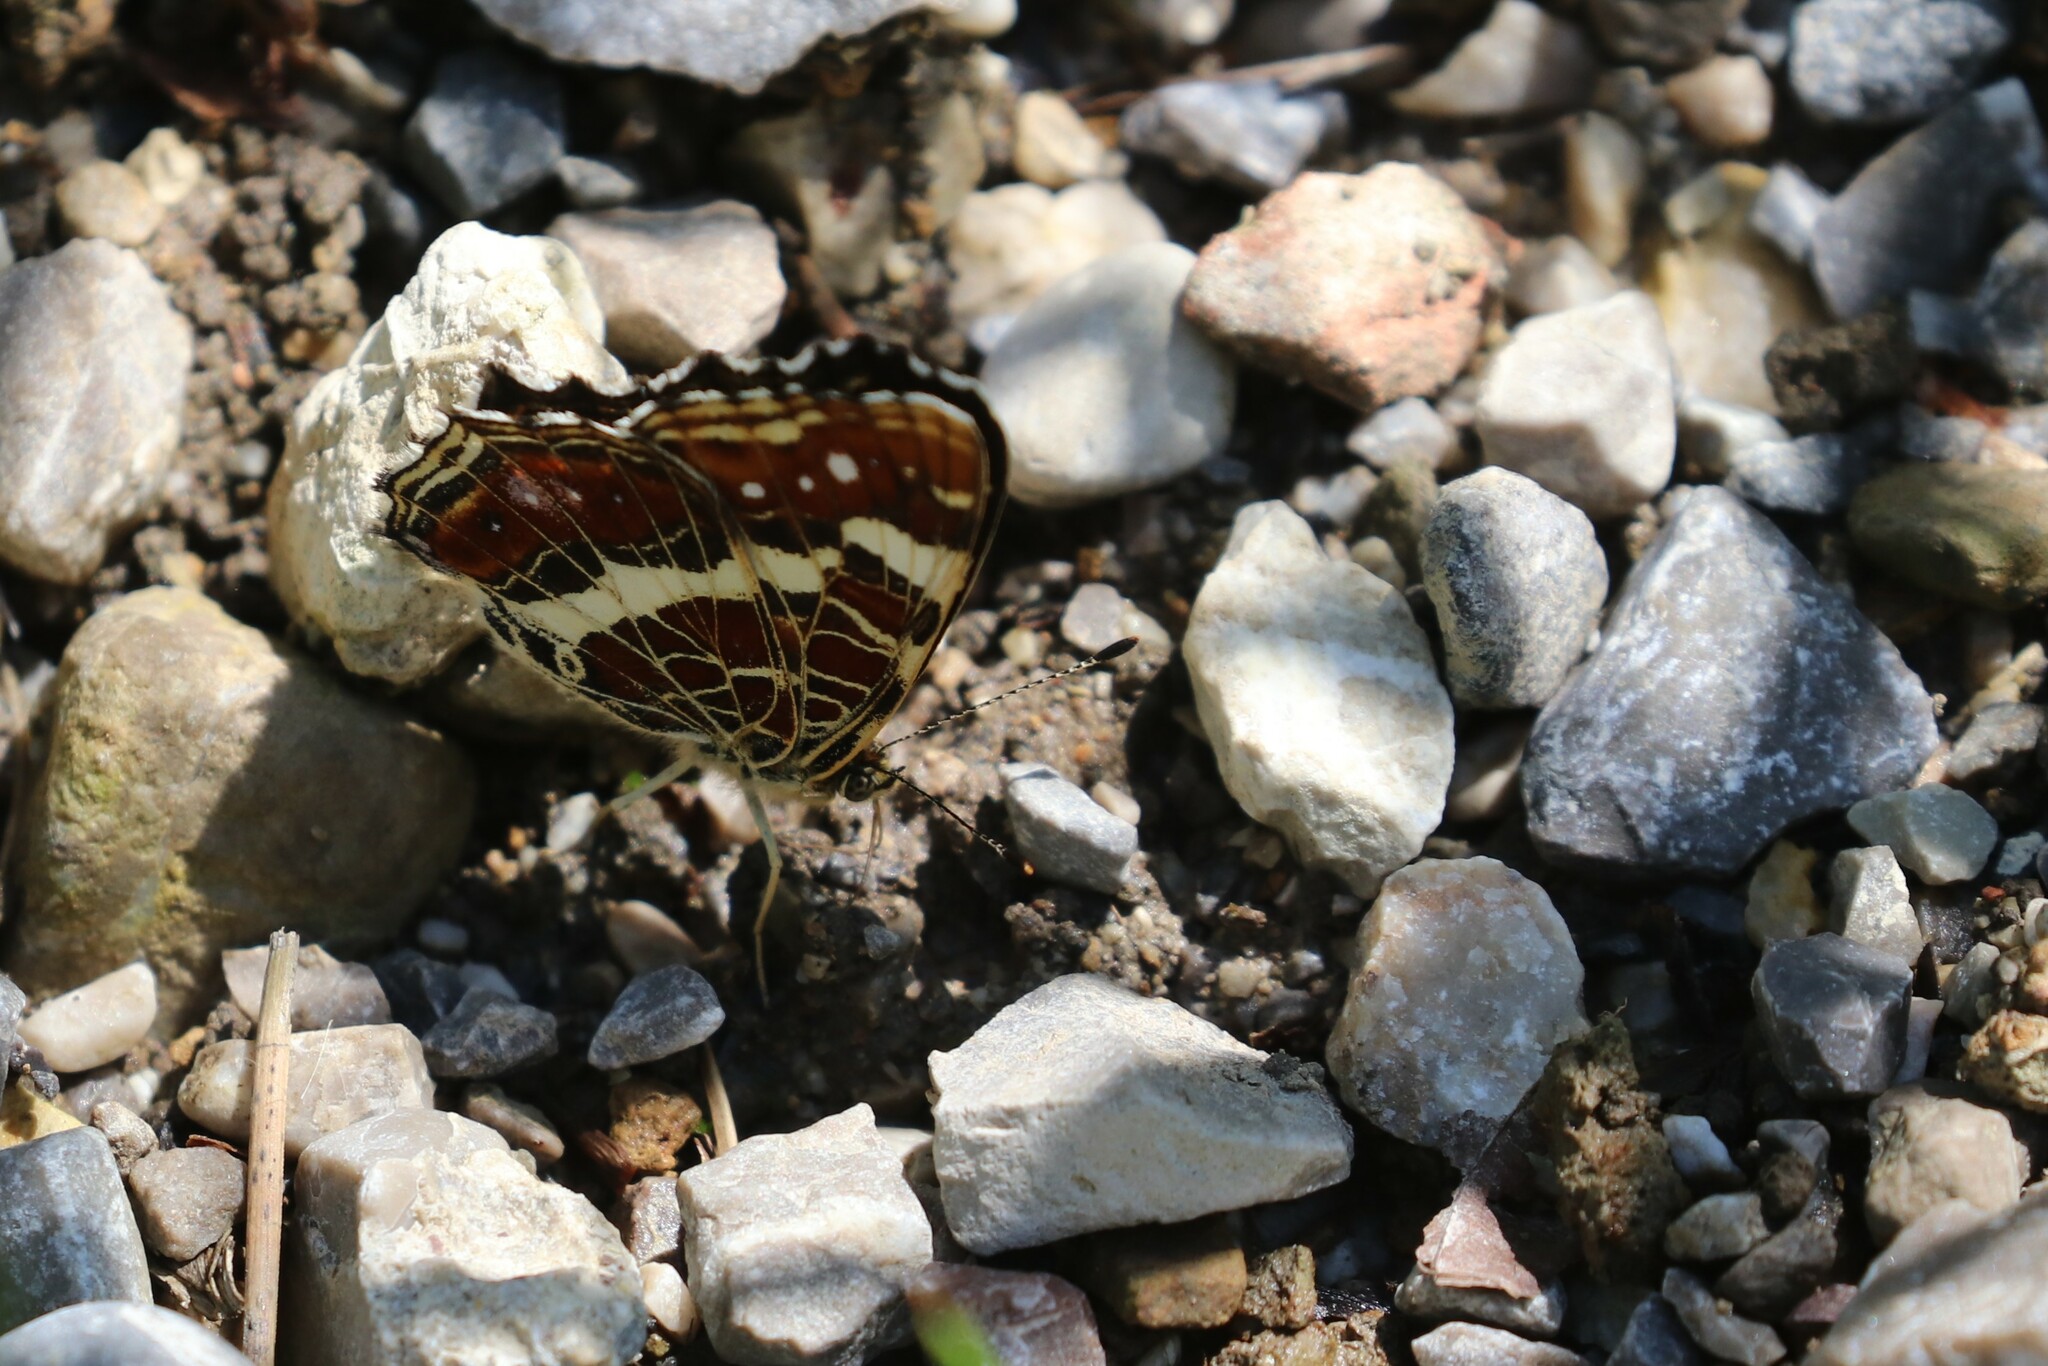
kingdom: Animalia
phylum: Arthropoda
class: Insecta
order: Lepidoptera
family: Nymphalidae
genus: Araschnia
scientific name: Araschnia levana
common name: Map butterfly
